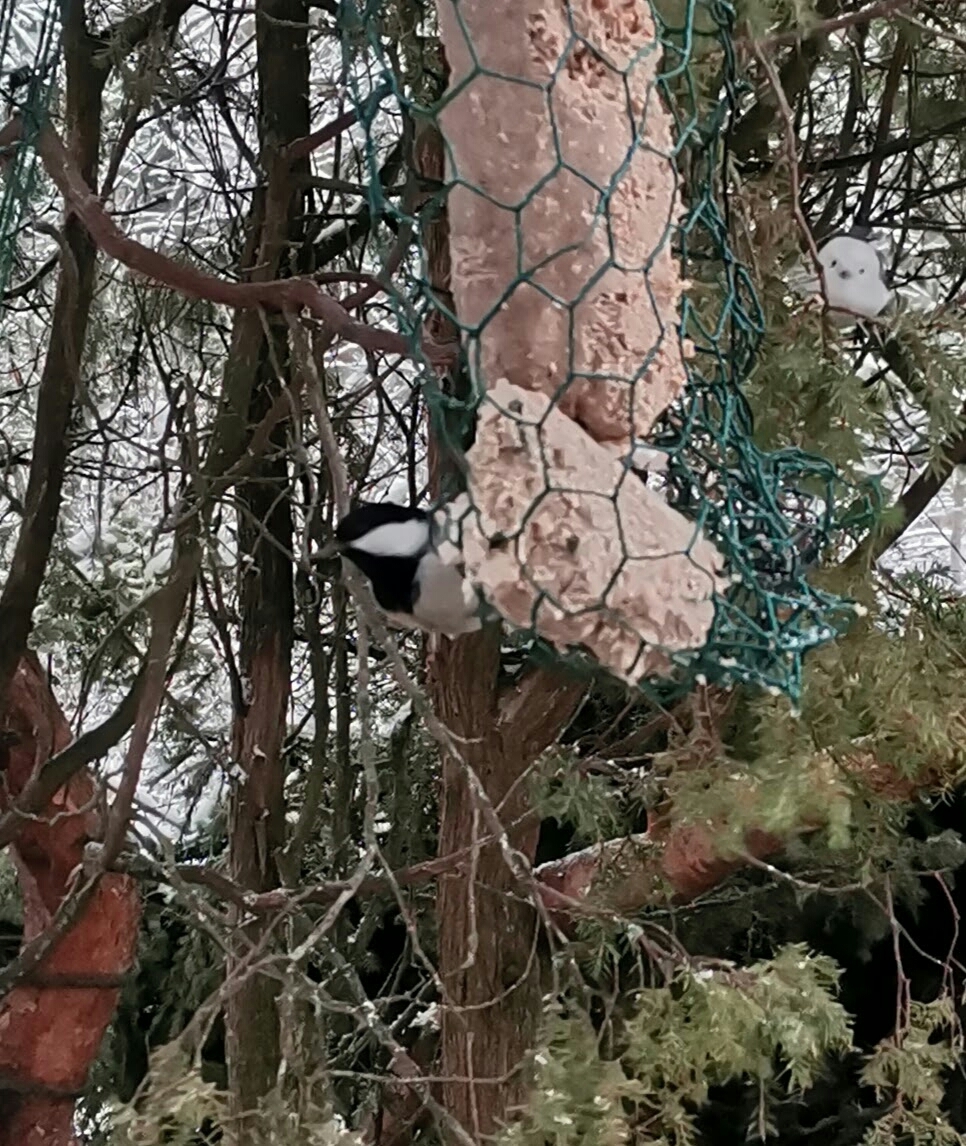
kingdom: Animalia
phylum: Chordata
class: Aves
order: Passeriformes
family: Paridae
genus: Periparus
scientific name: Periparus ater
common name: Coal tit
